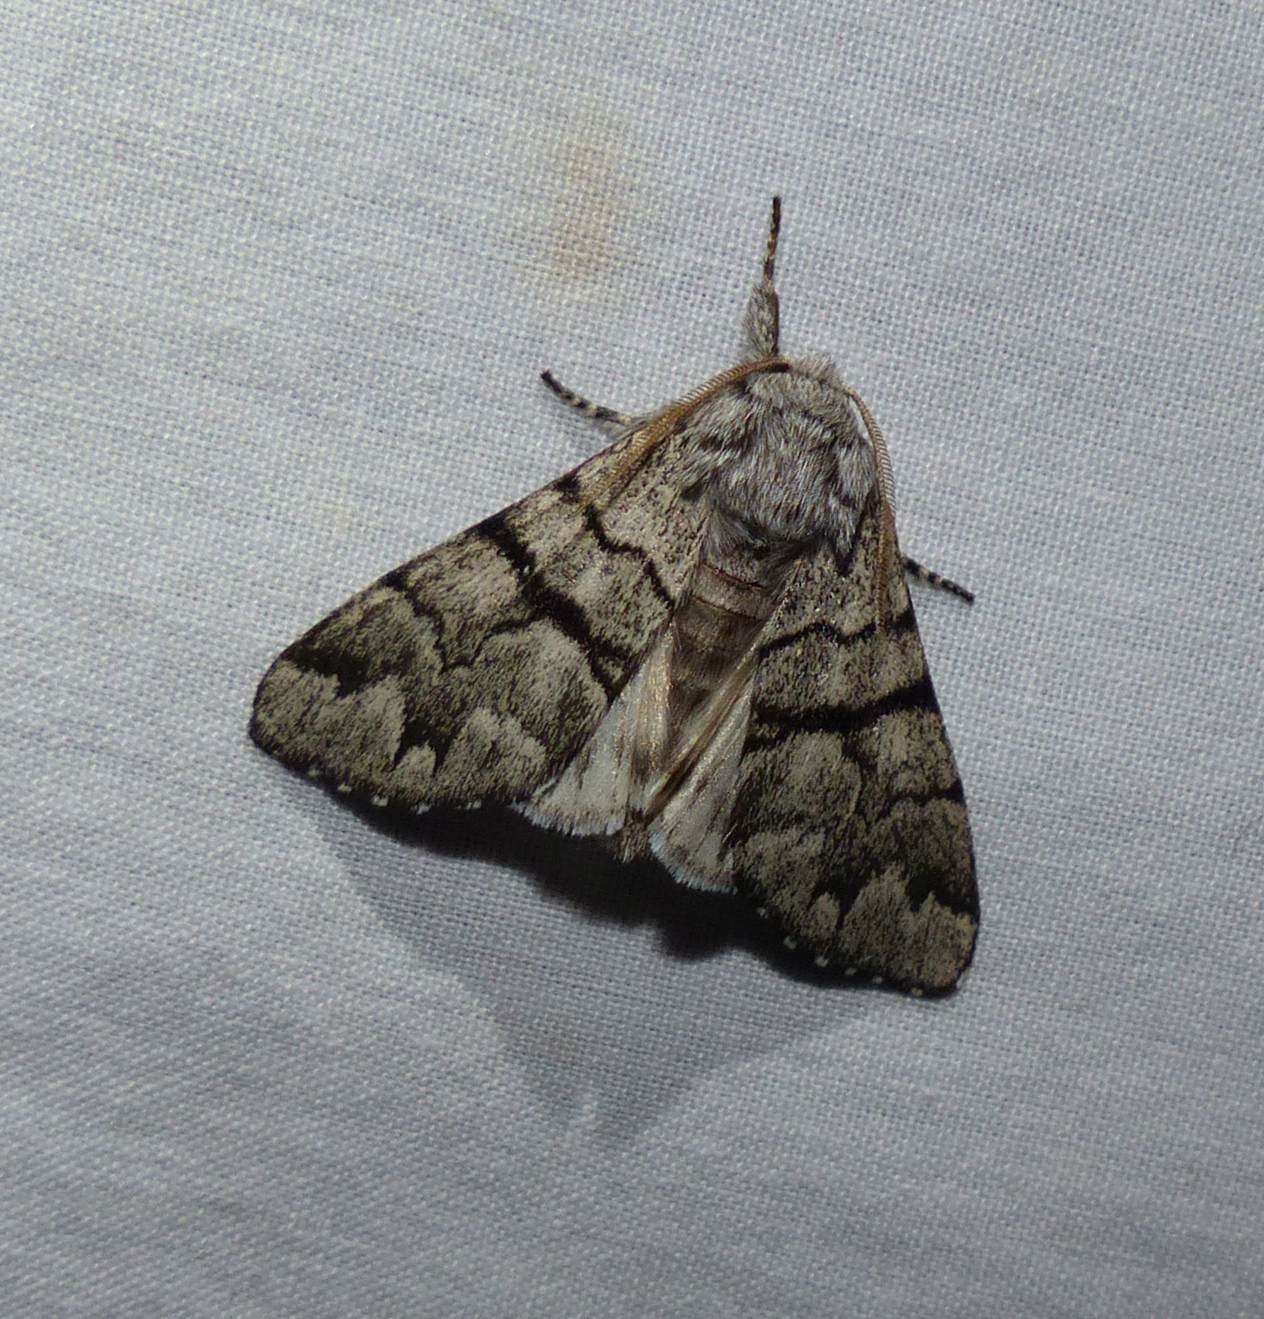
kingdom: Animalia
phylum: Arthropoda
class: Insecta
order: Lepidoptera
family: Noctuidae
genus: Panthea
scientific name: Panthea furcilla
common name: Eastern panthea moth
